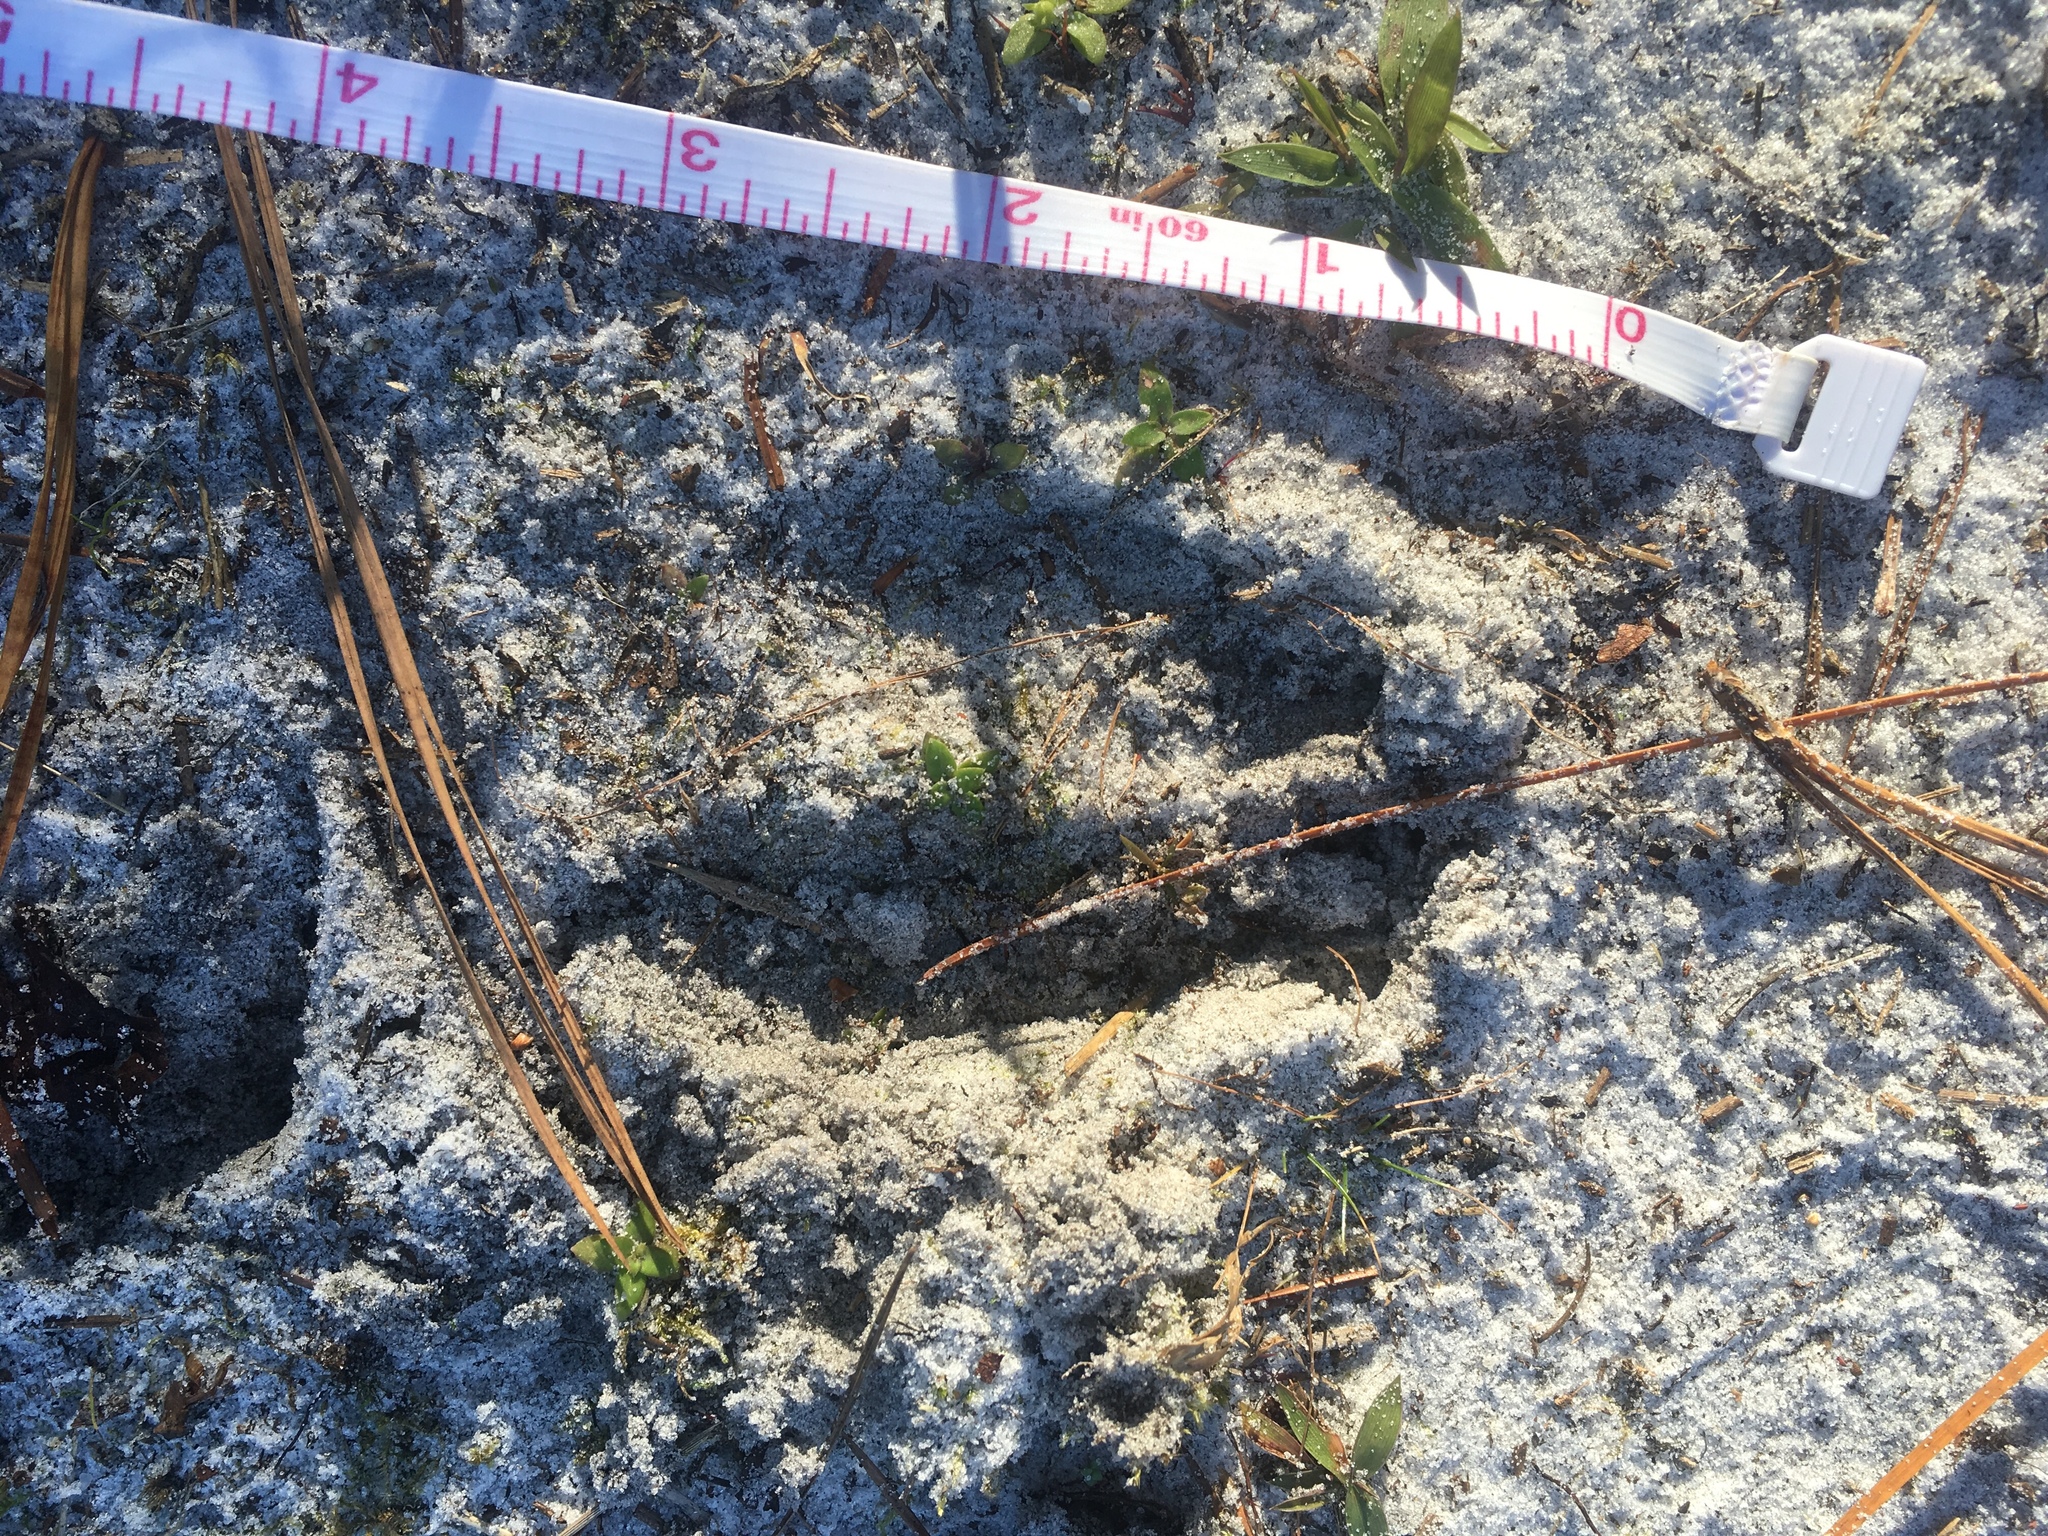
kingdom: Animalia
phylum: Chordata
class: Mammalia
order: Artiodactyla
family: Cervidae
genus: Odocoileus
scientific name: Odocoileus virginianus
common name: White-tailed deer
